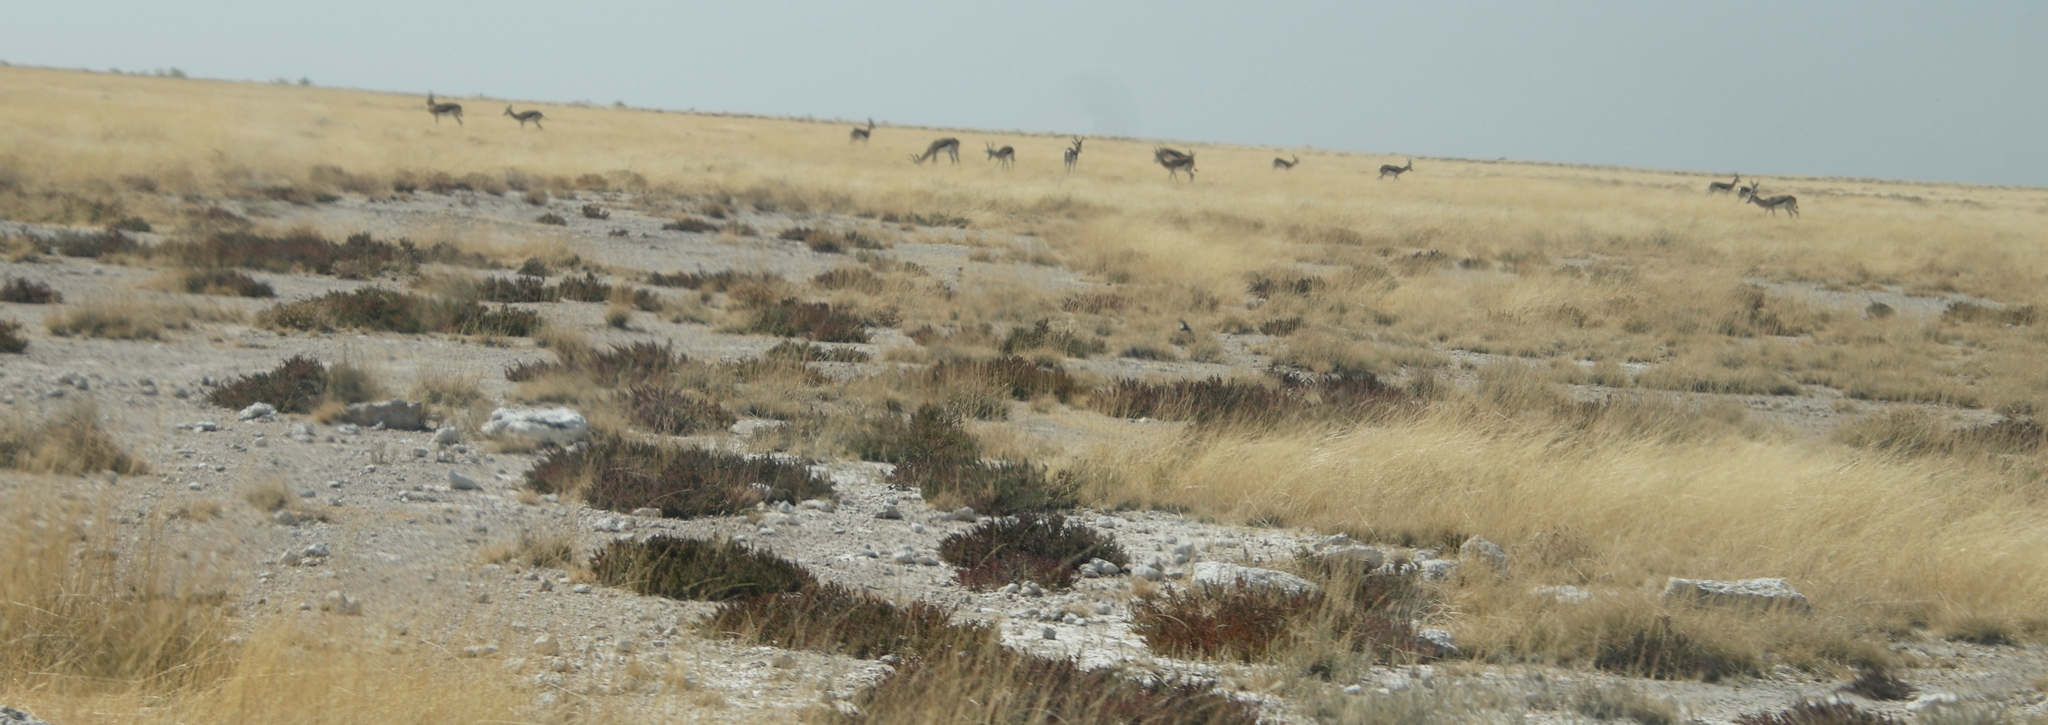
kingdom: Animalia
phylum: Chordata
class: Mammalia
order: Artiodactyla
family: Bovidae
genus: Antidorcas
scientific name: Antidorcas marsupialis
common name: Springbok
